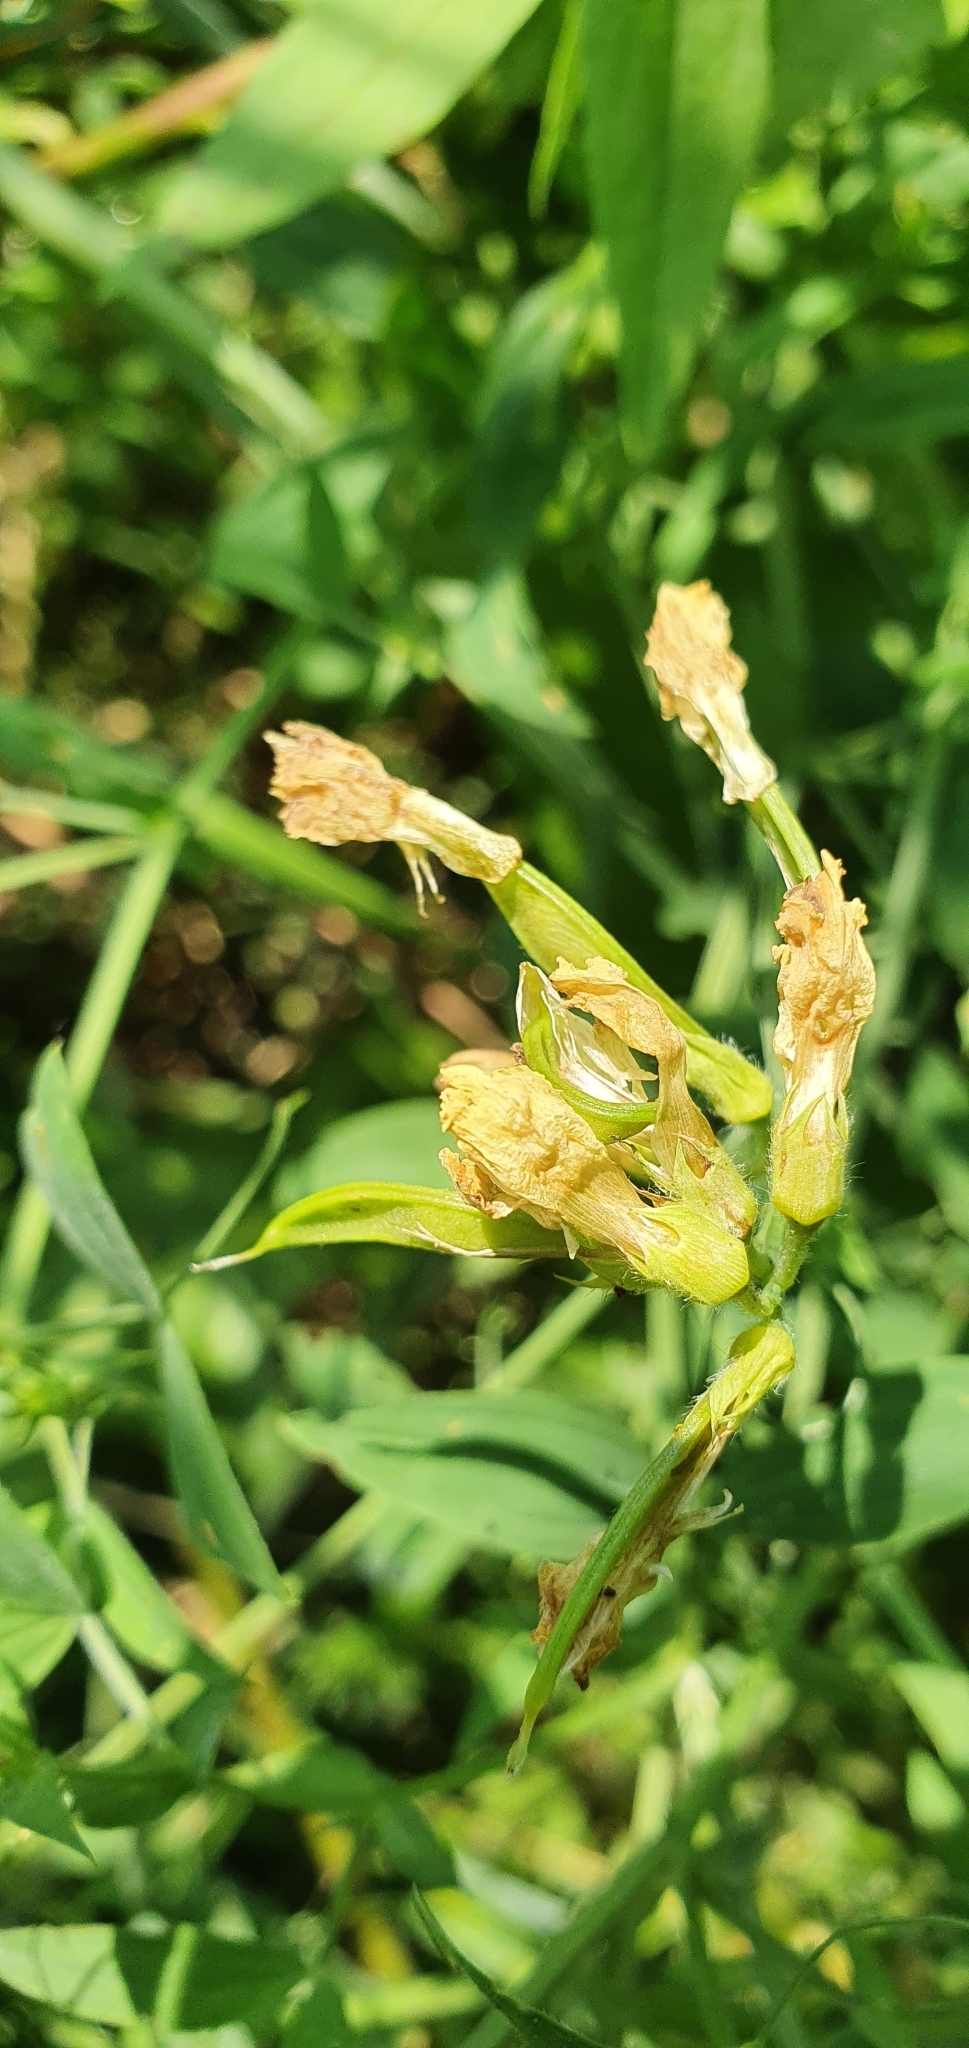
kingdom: Plantae
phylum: Tracheophyta
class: Magnoliopsida
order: Fabales
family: Fabaceae
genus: Lathyrus
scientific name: Lathyrus pratensis
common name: Meadow vetchling
